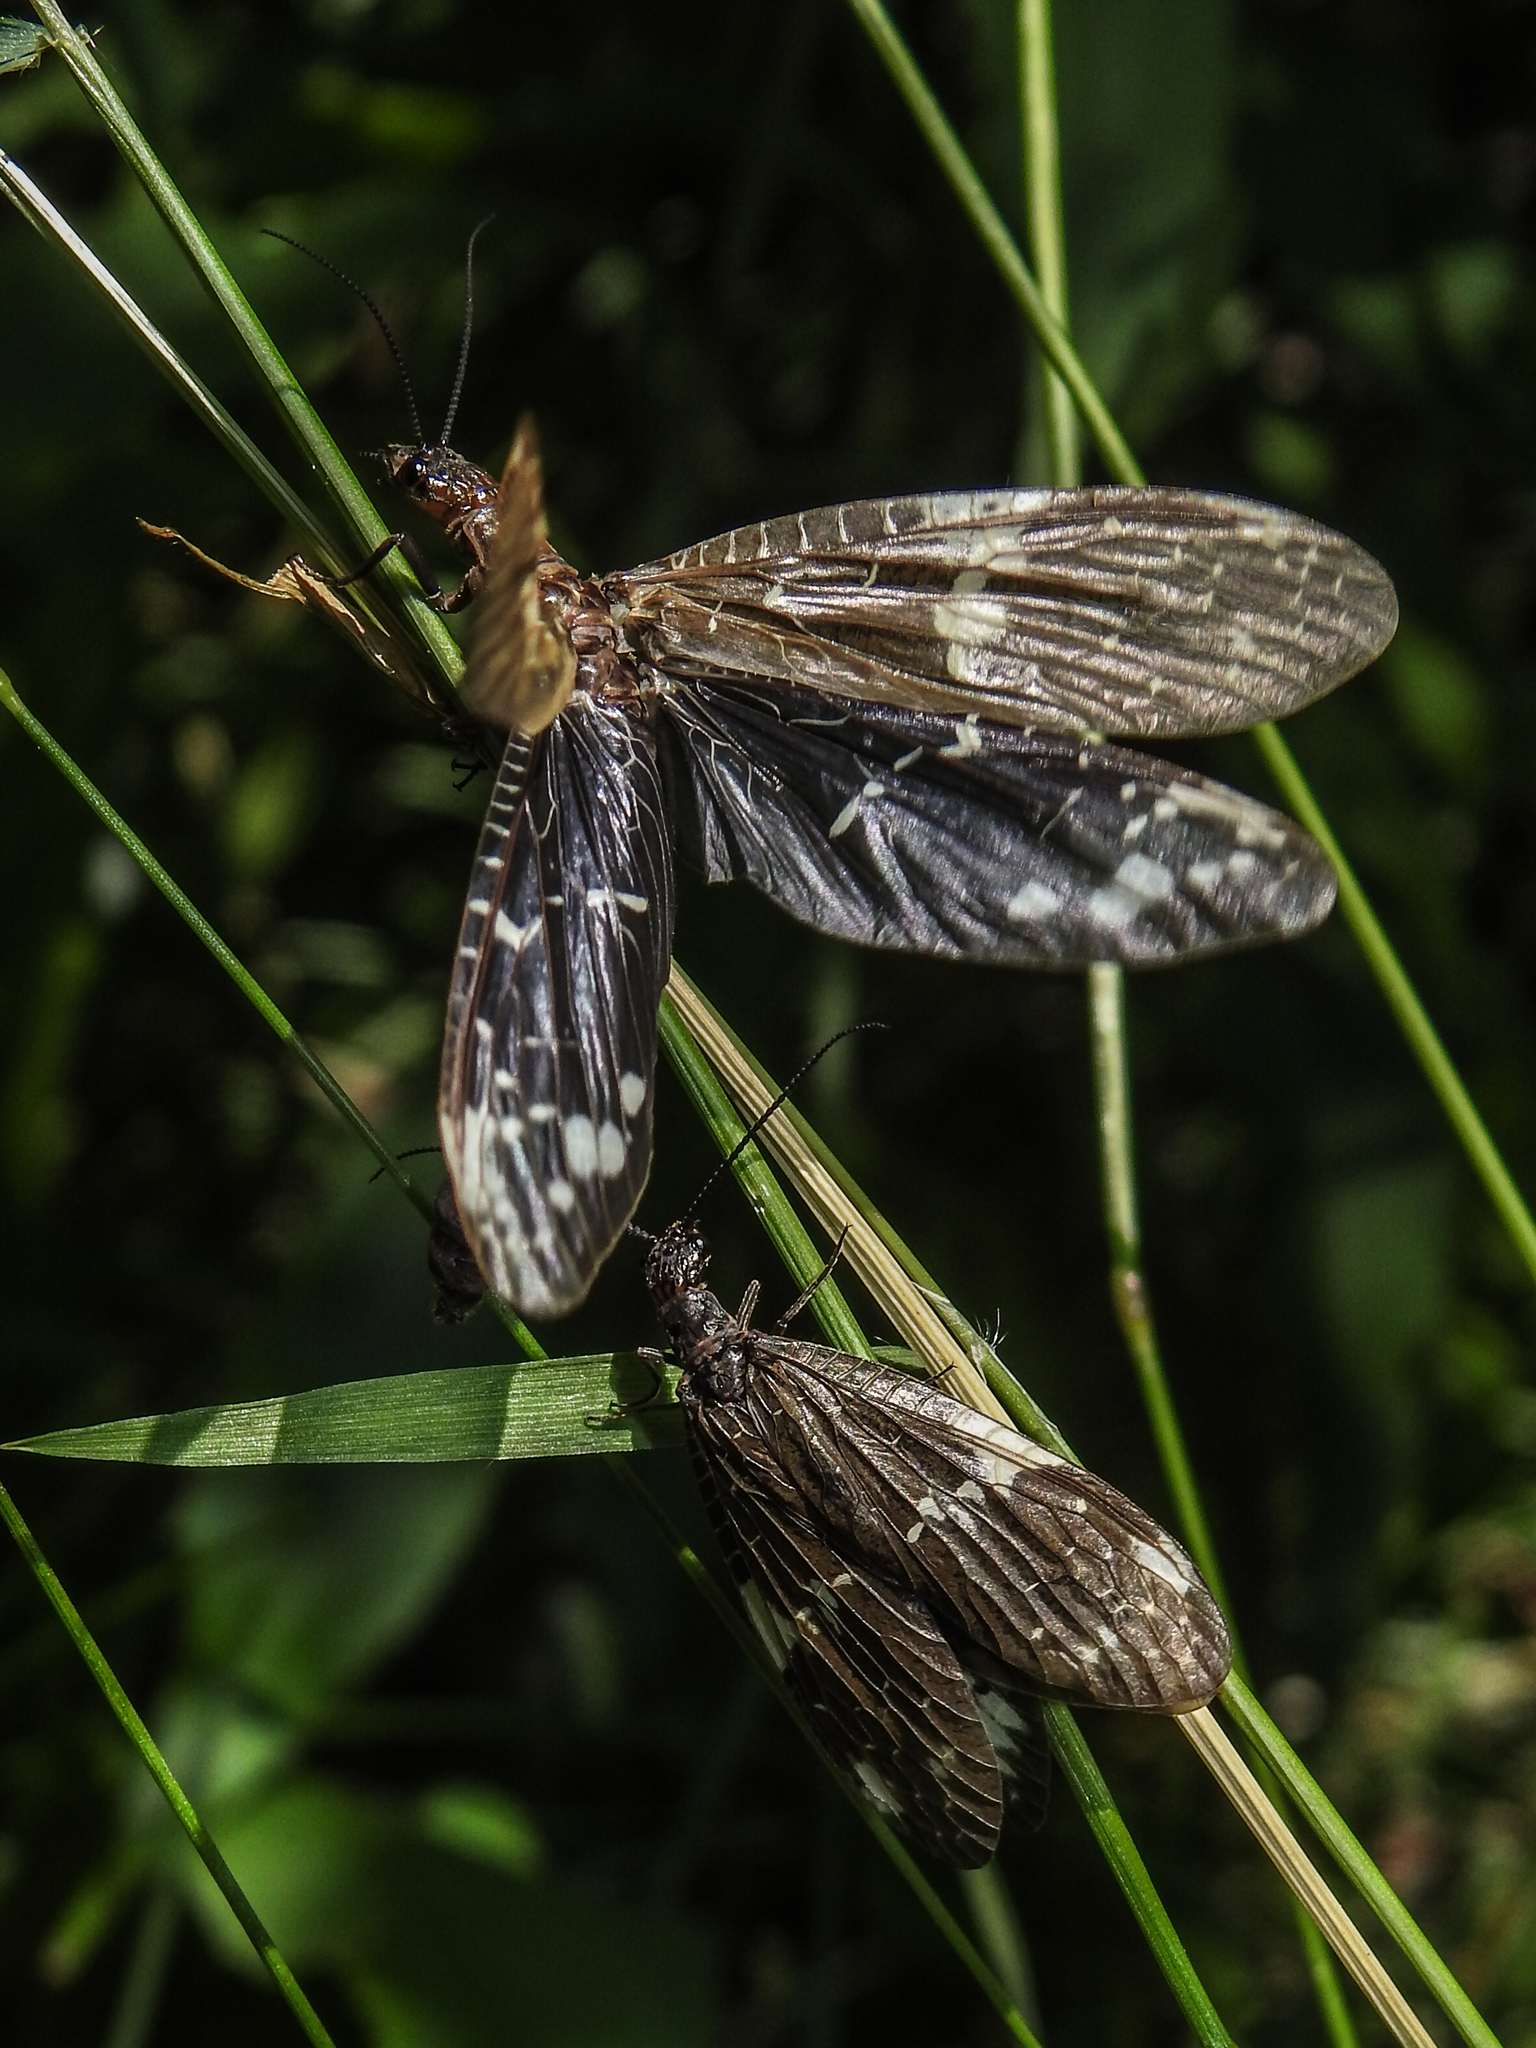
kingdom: Animalia
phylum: Arthropoda
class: Insecta
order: Megaloptera
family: Corydalidae
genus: Nigronia
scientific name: Nigronia serricornis
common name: Serrate dark fishfly
